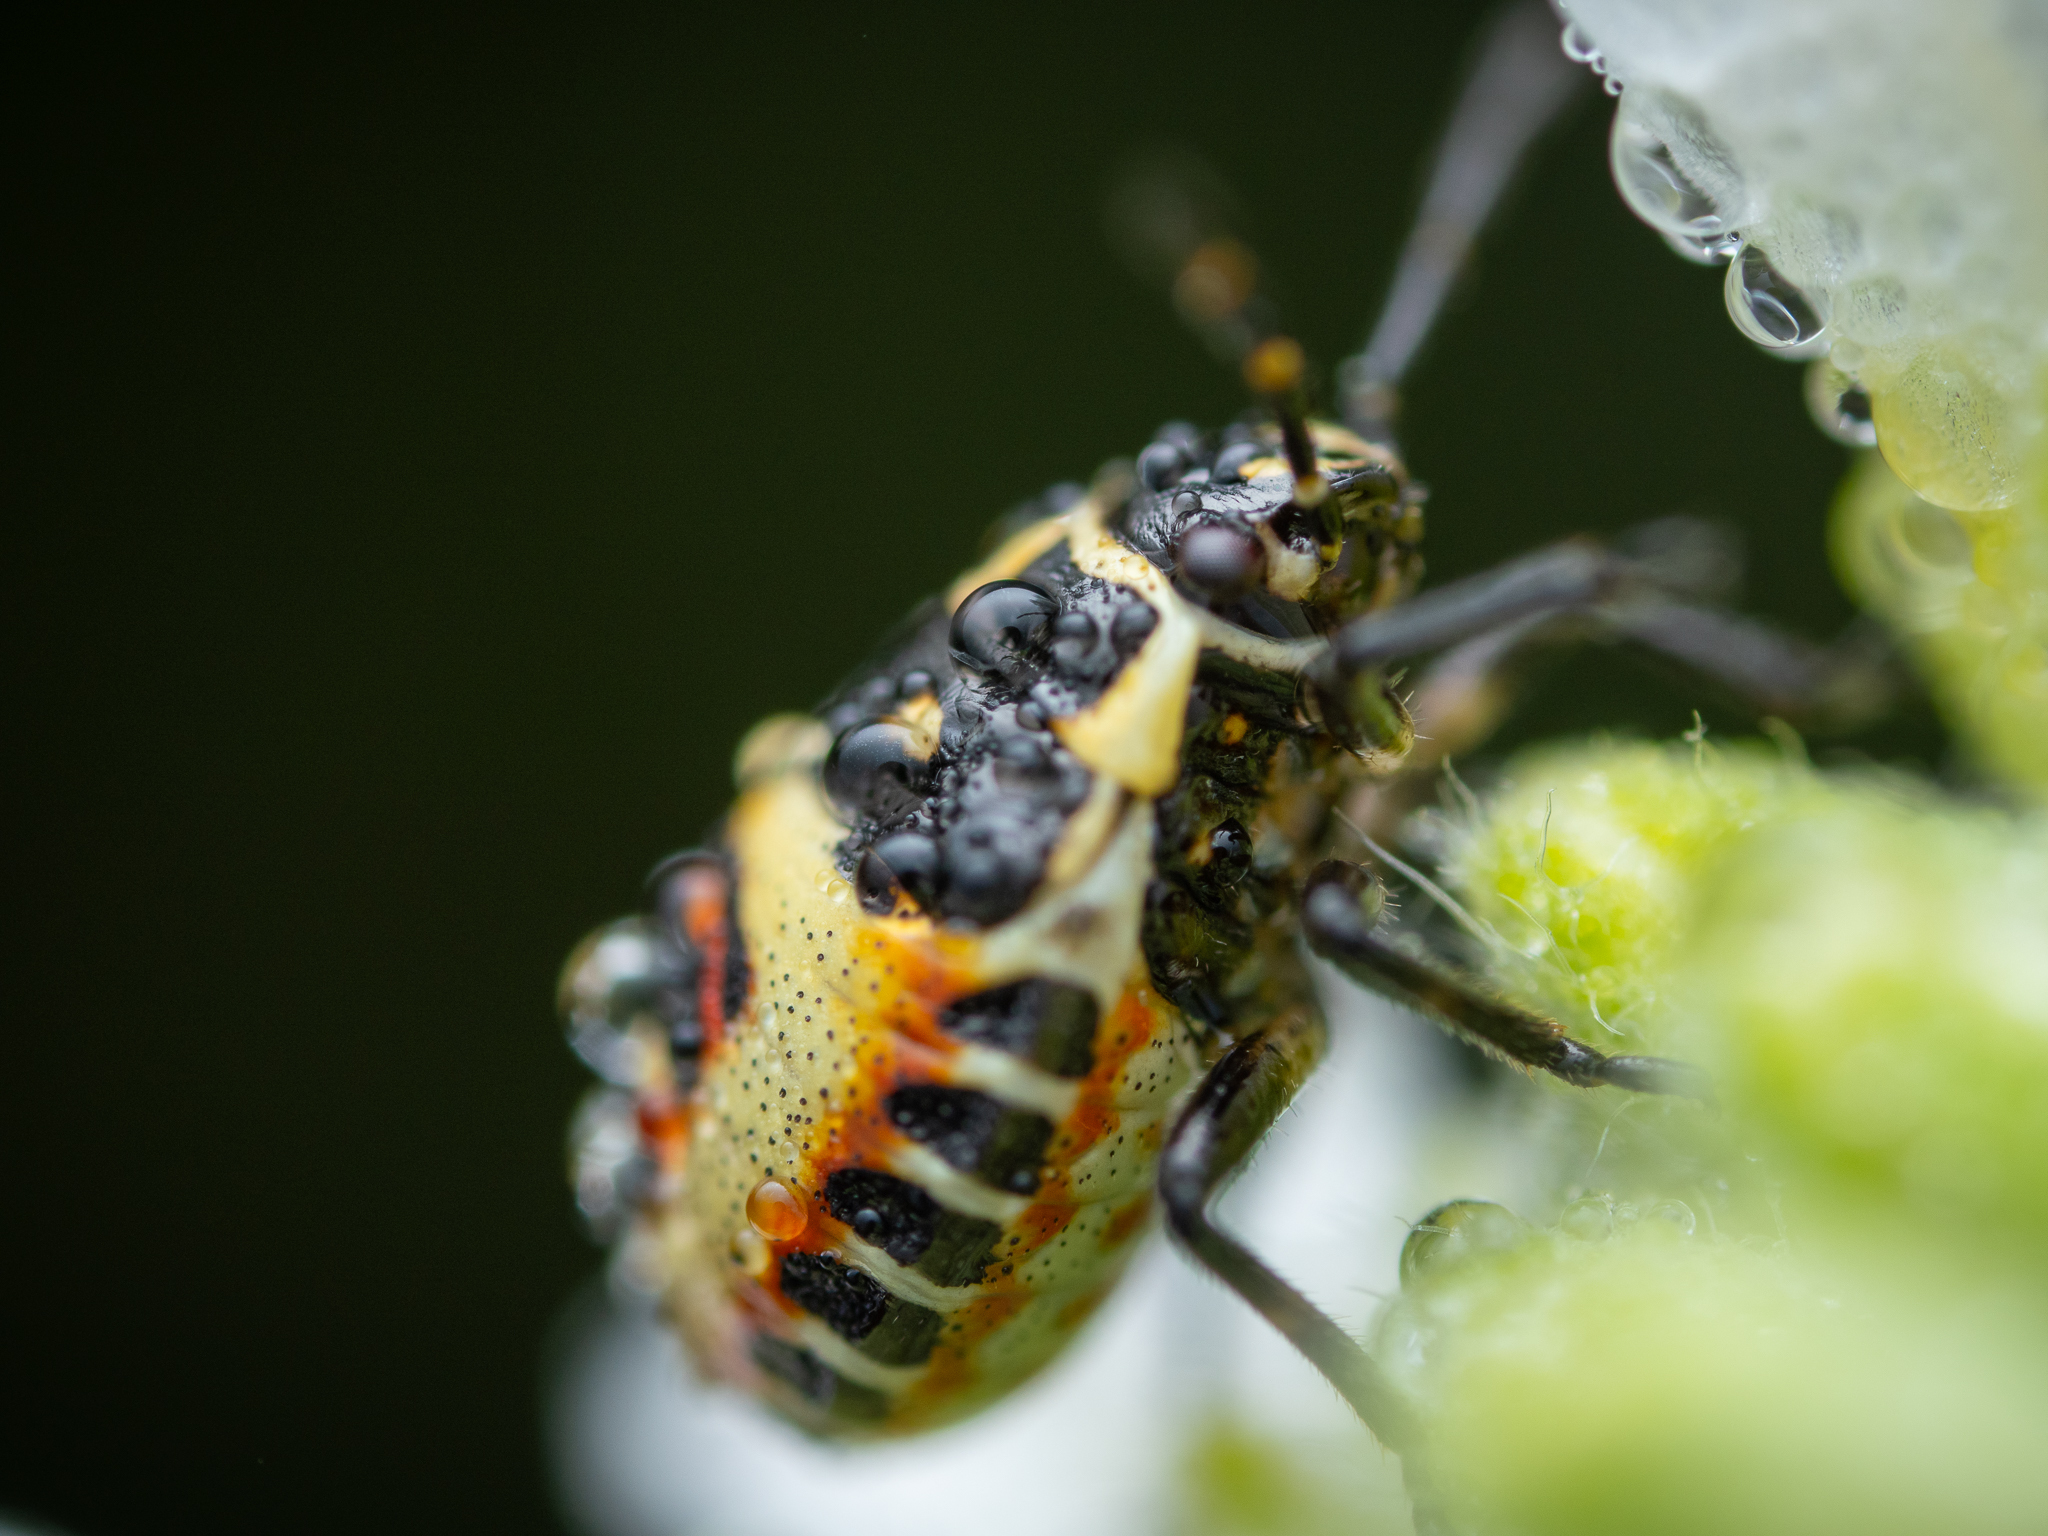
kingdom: Animalia
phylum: Arthropoda
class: Insecta
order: Hemiptera
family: Pentatomidae
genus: Eurydema
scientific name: Eurydema oleracea
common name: Cabbage bug
